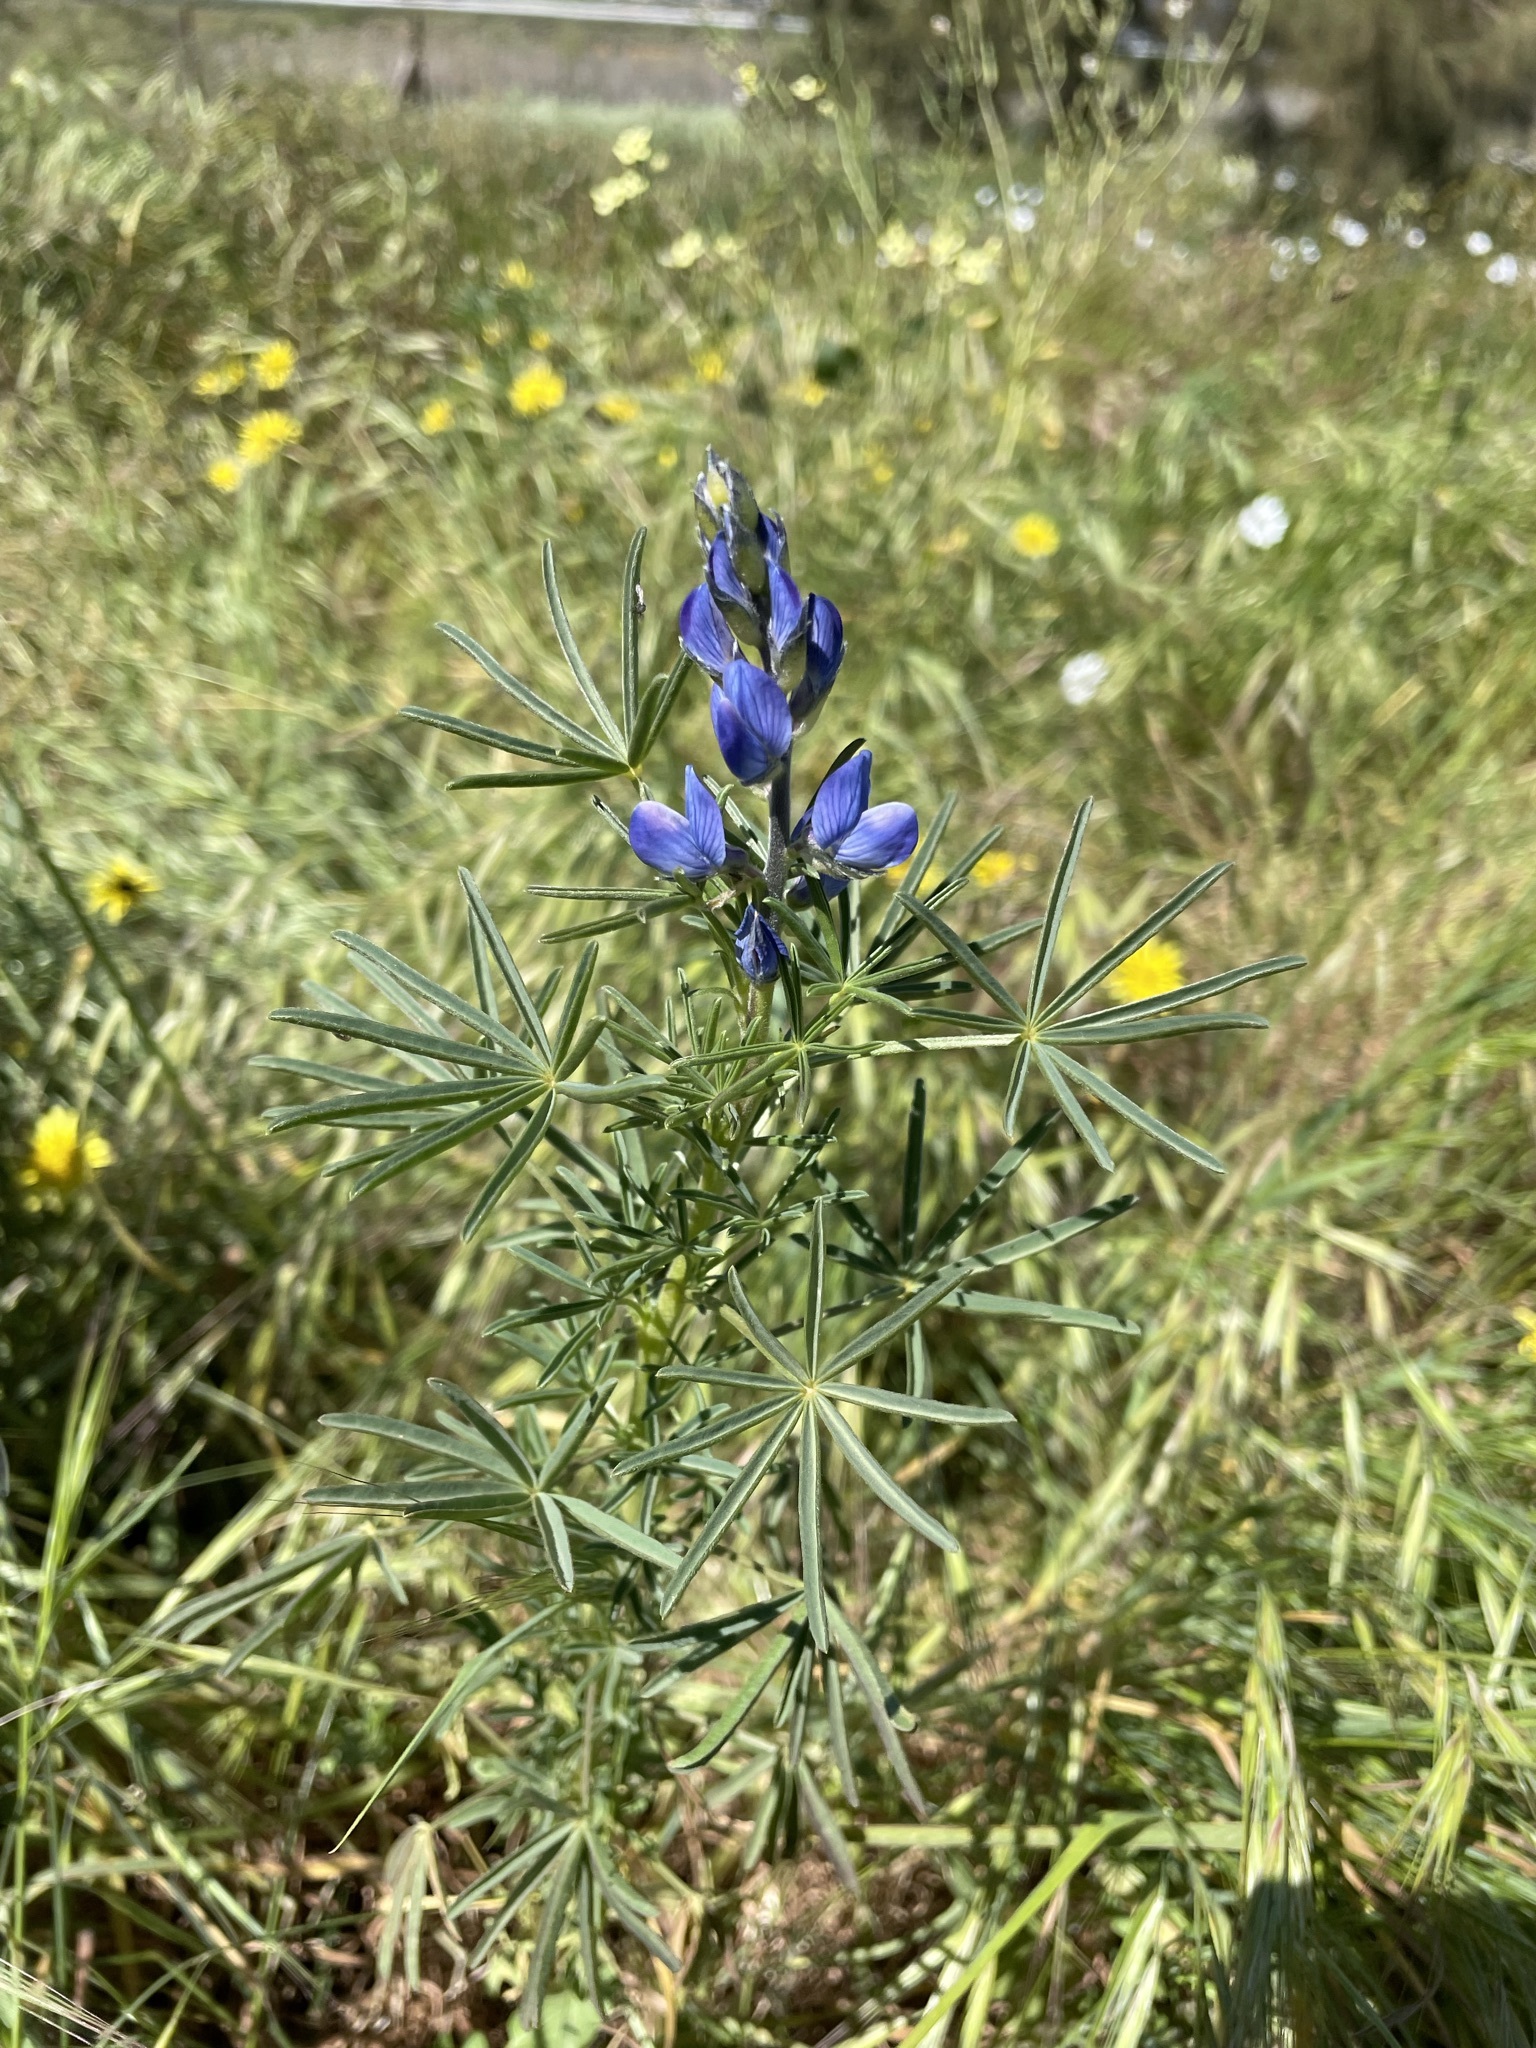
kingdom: Plantae
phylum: Tracheophyta
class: Magnoliopsida
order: Fabales
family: Fabaceae
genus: Lupinus
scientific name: Lupinus angustifolius
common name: Narrow-leaved lupin
